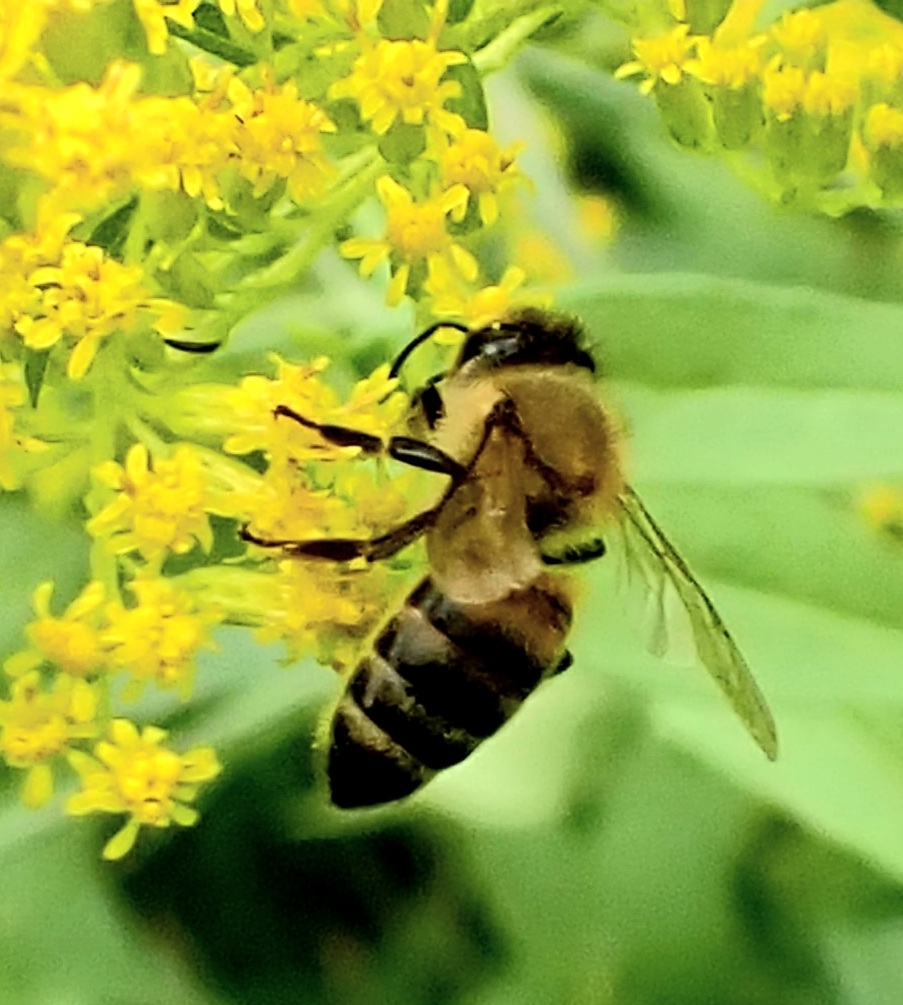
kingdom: Animalia
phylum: Arthropoda
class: Insecta
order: Hymenoptera
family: Apidae
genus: Apis
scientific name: Apis mellifera
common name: Honey bee
